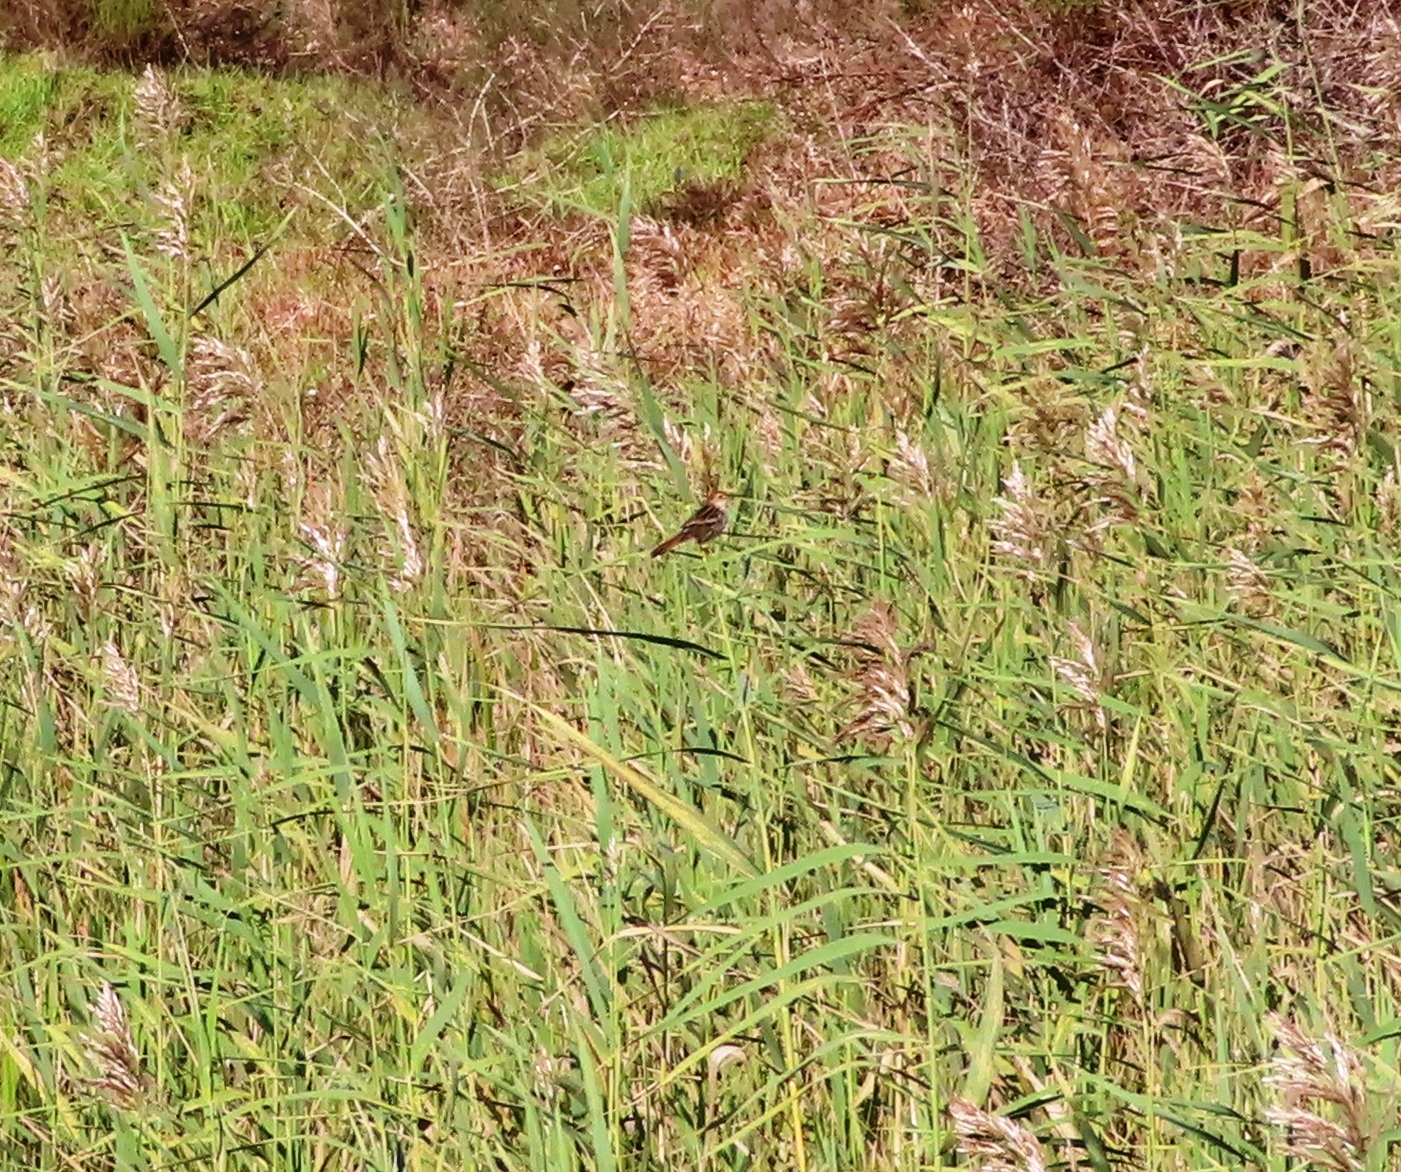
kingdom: Animalia
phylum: Chordata
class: Aves
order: Passeriformes
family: Cisticolidae
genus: Cisticola
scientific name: Cisticola tinniens
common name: Levaillant's cisticola
